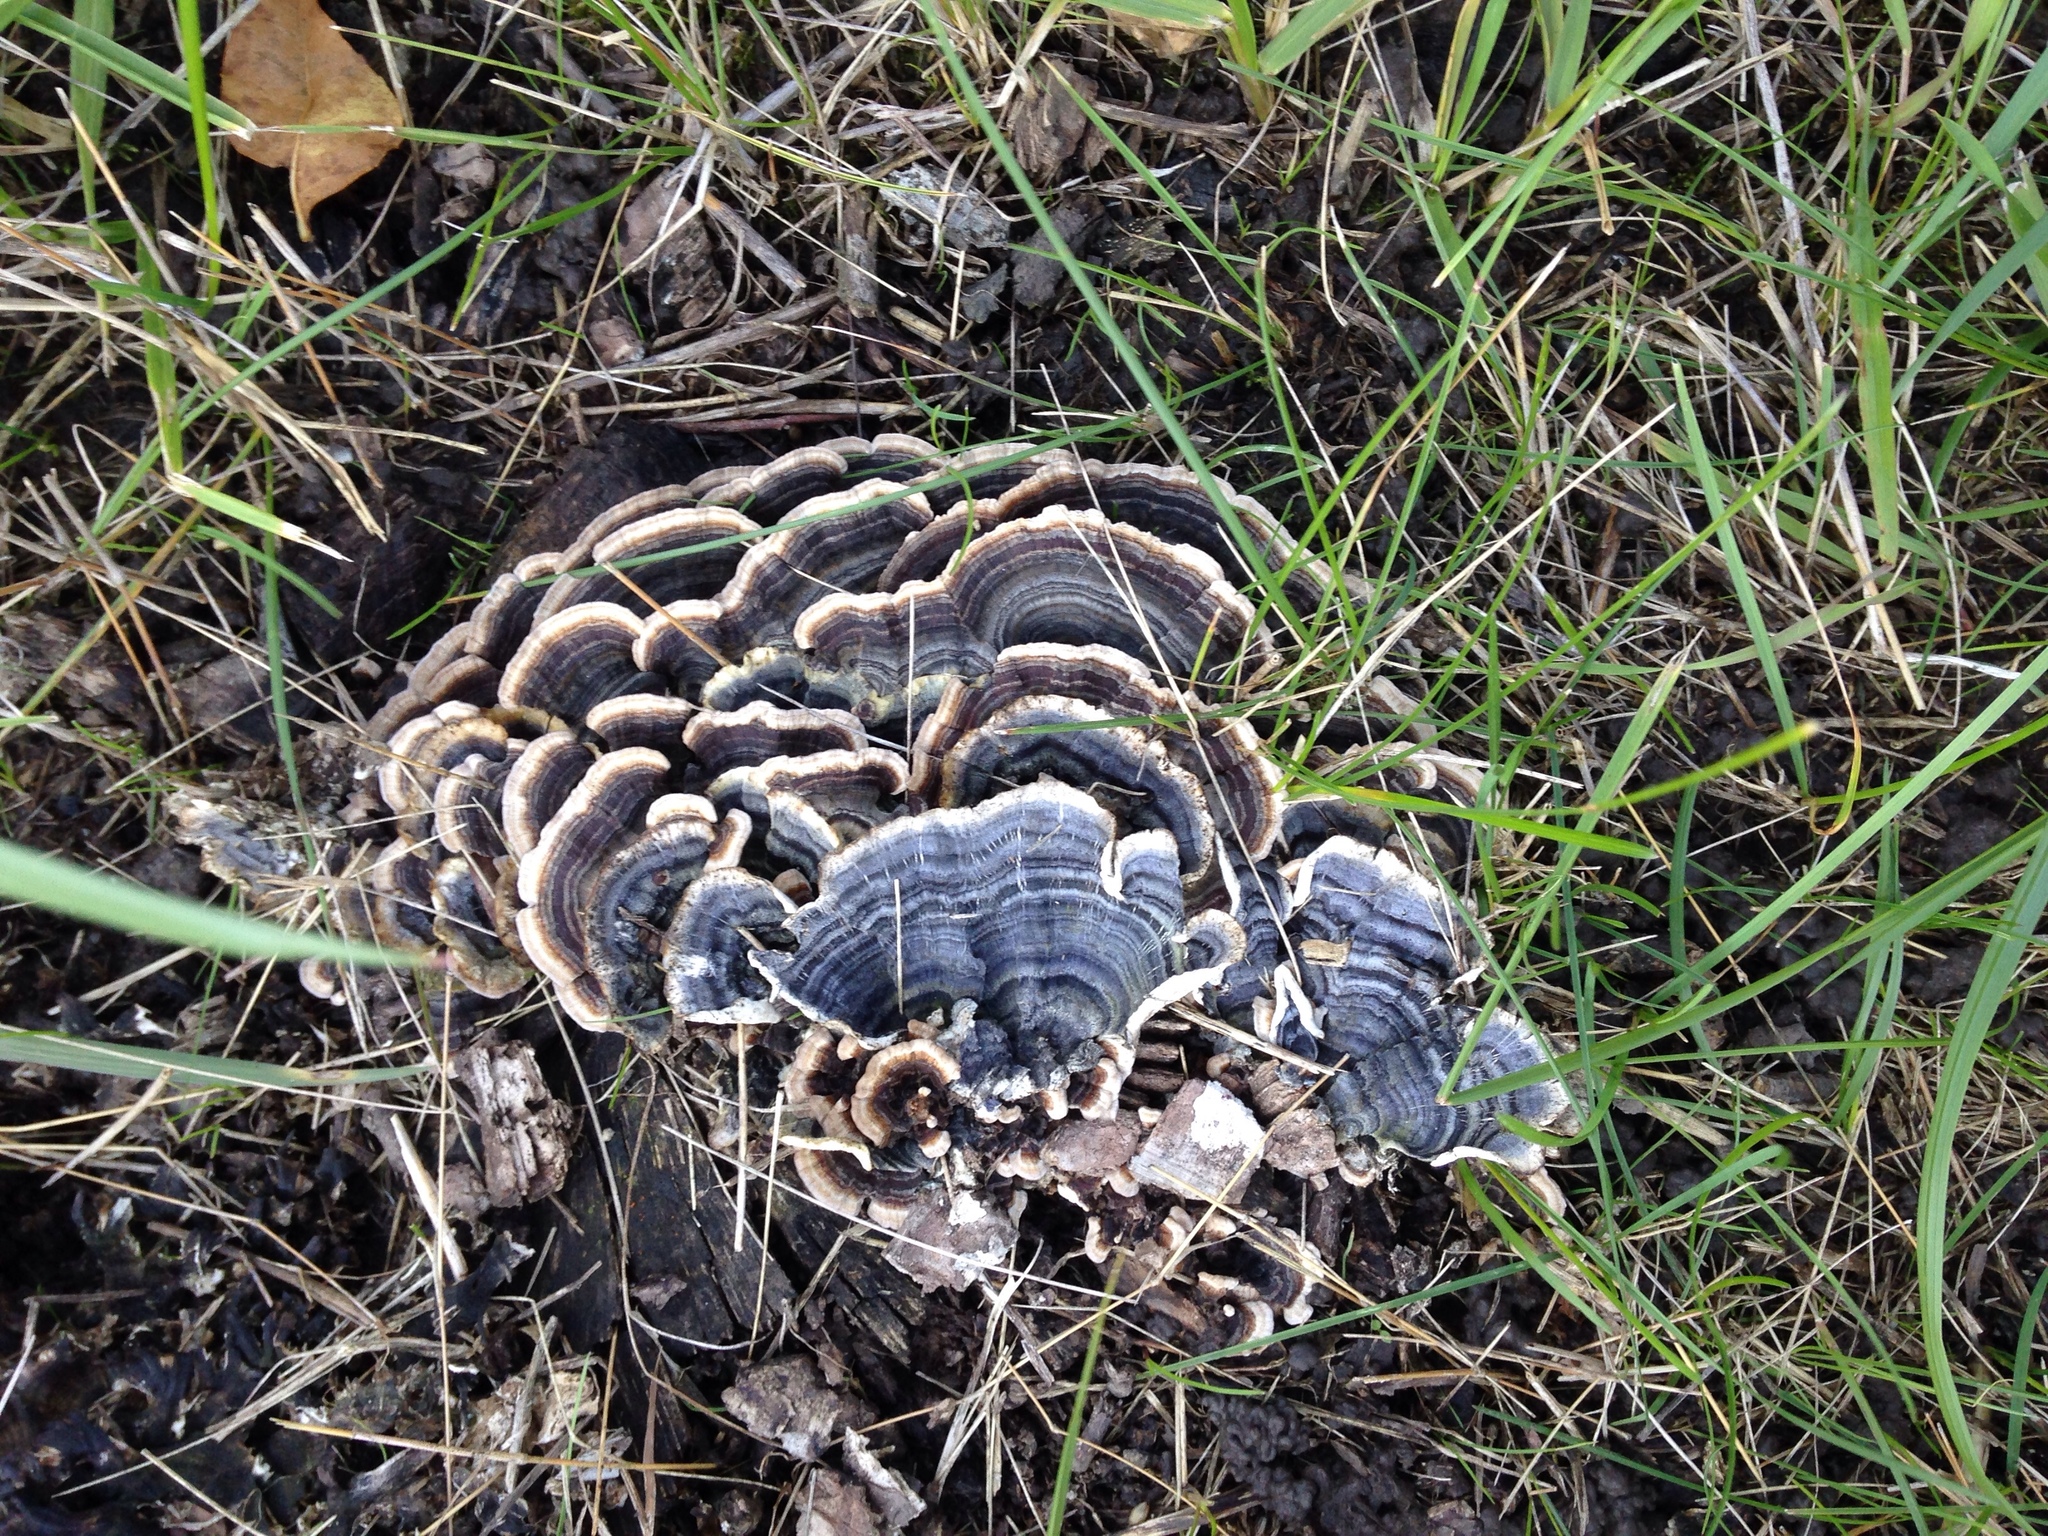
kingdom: Fungi
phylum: Basidiomycota
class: Agaricomycetes
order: Polyporales
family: Polyporaceae
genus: Trametes
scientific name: Trametes versicolor
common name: Turkeytail
